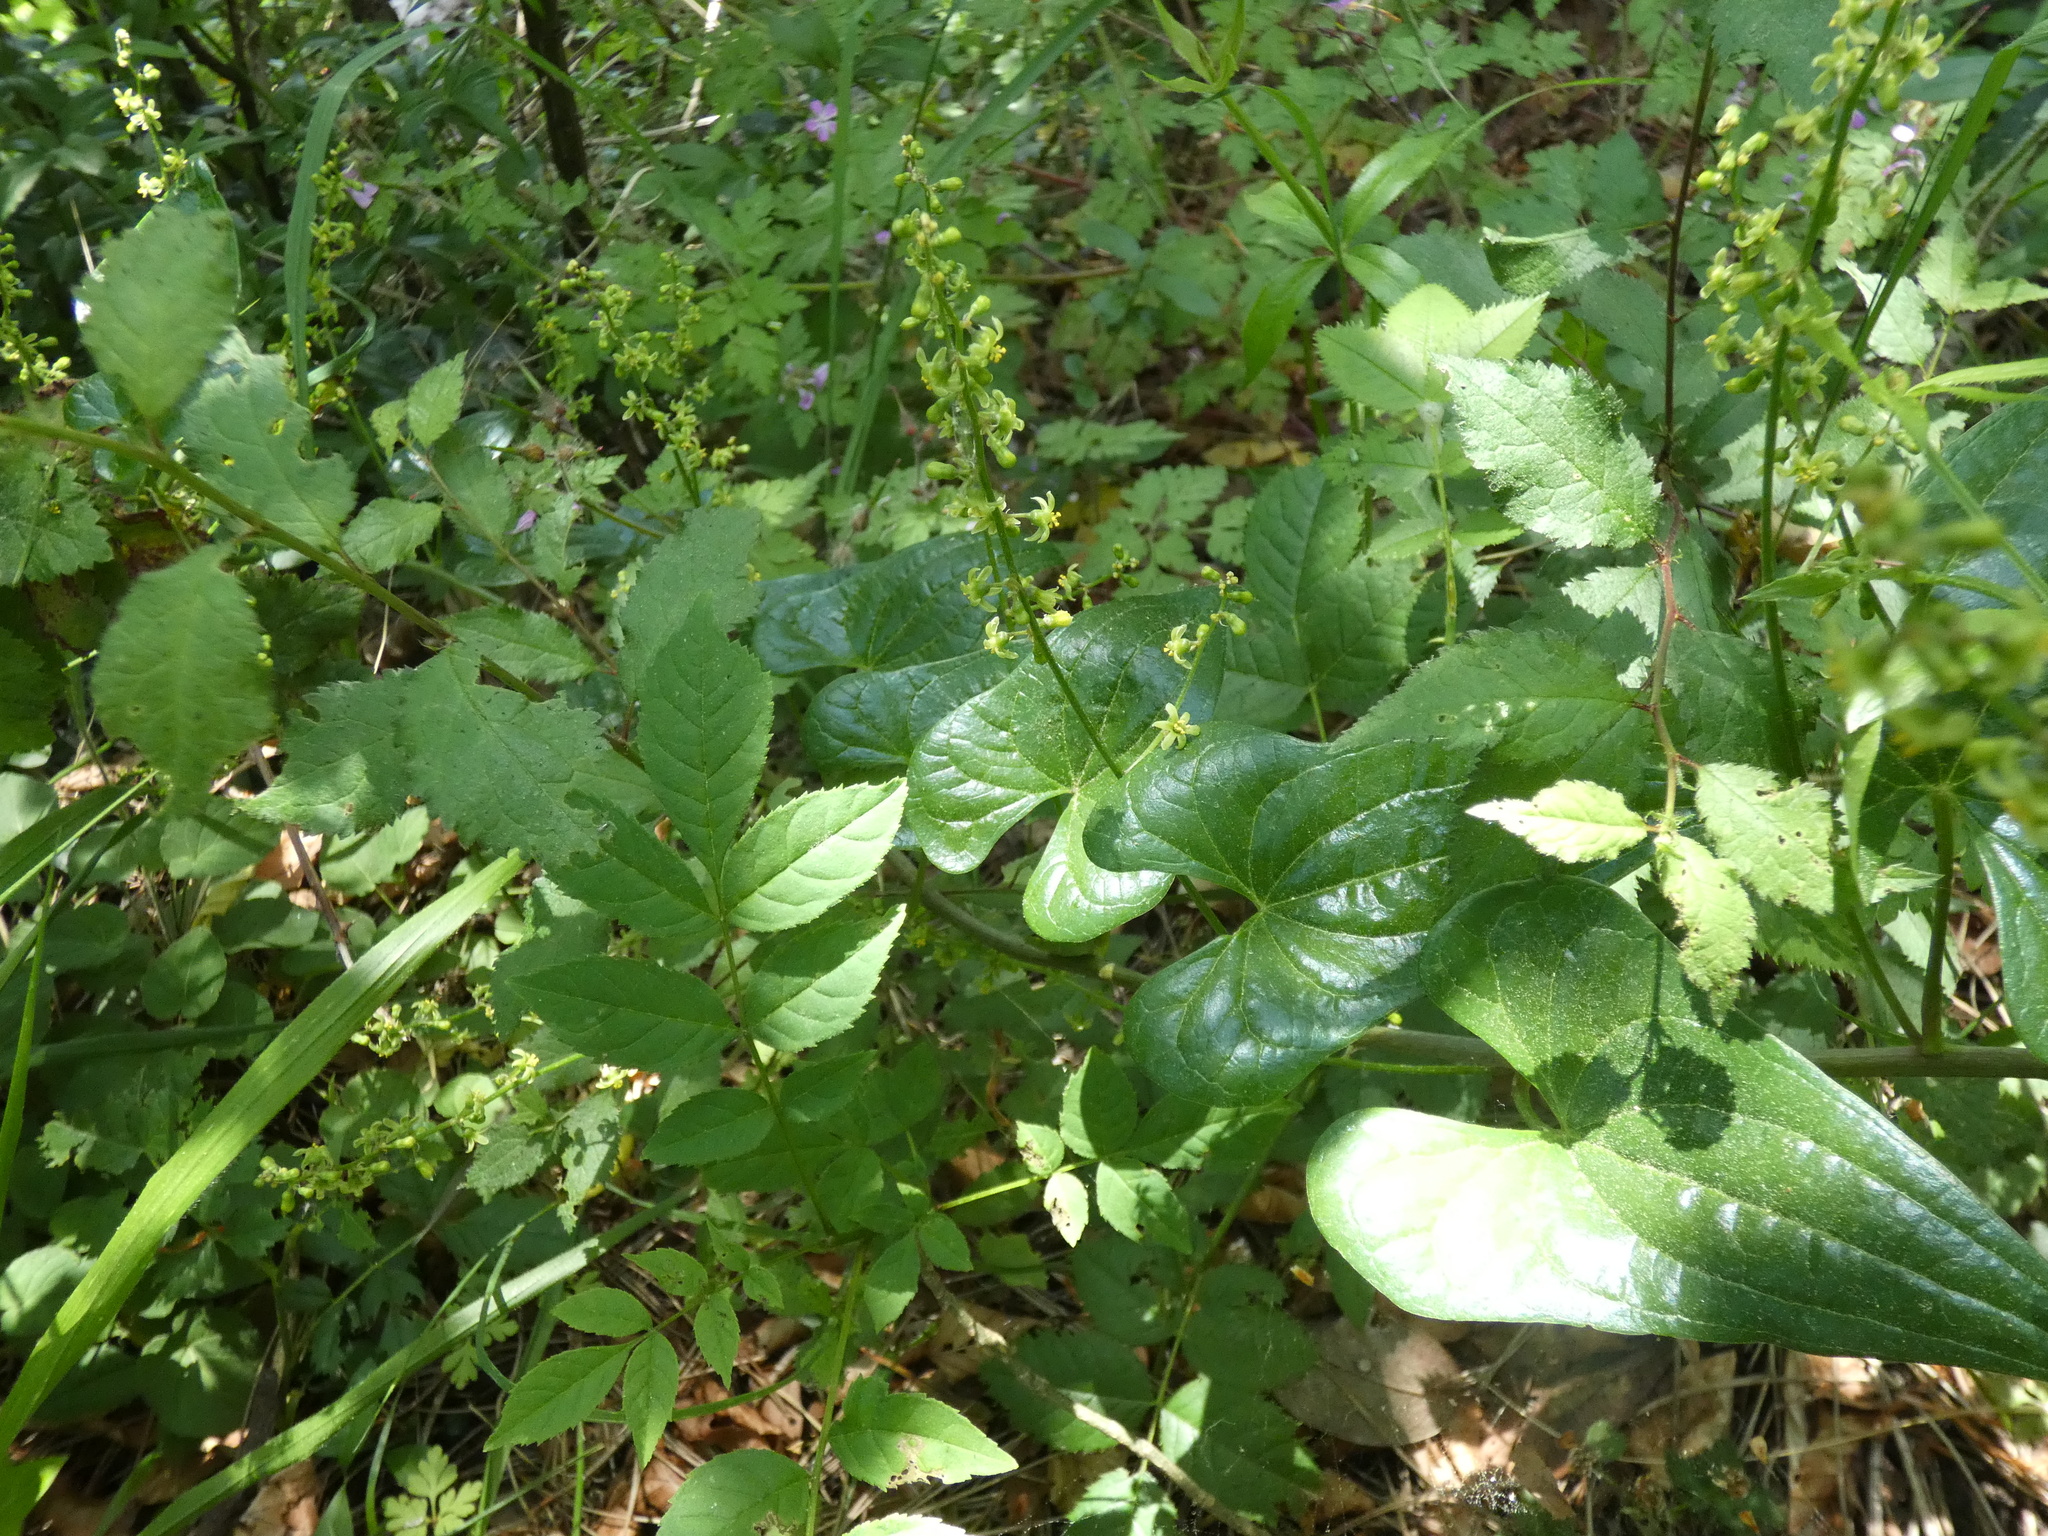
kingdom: Plantae
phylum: Tracheophyta
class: Liliopsida
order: Dioscoreales
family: Dioscoreaceae
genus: Dioscorea
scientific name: Dioscorea communis
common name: Black-bindweed
